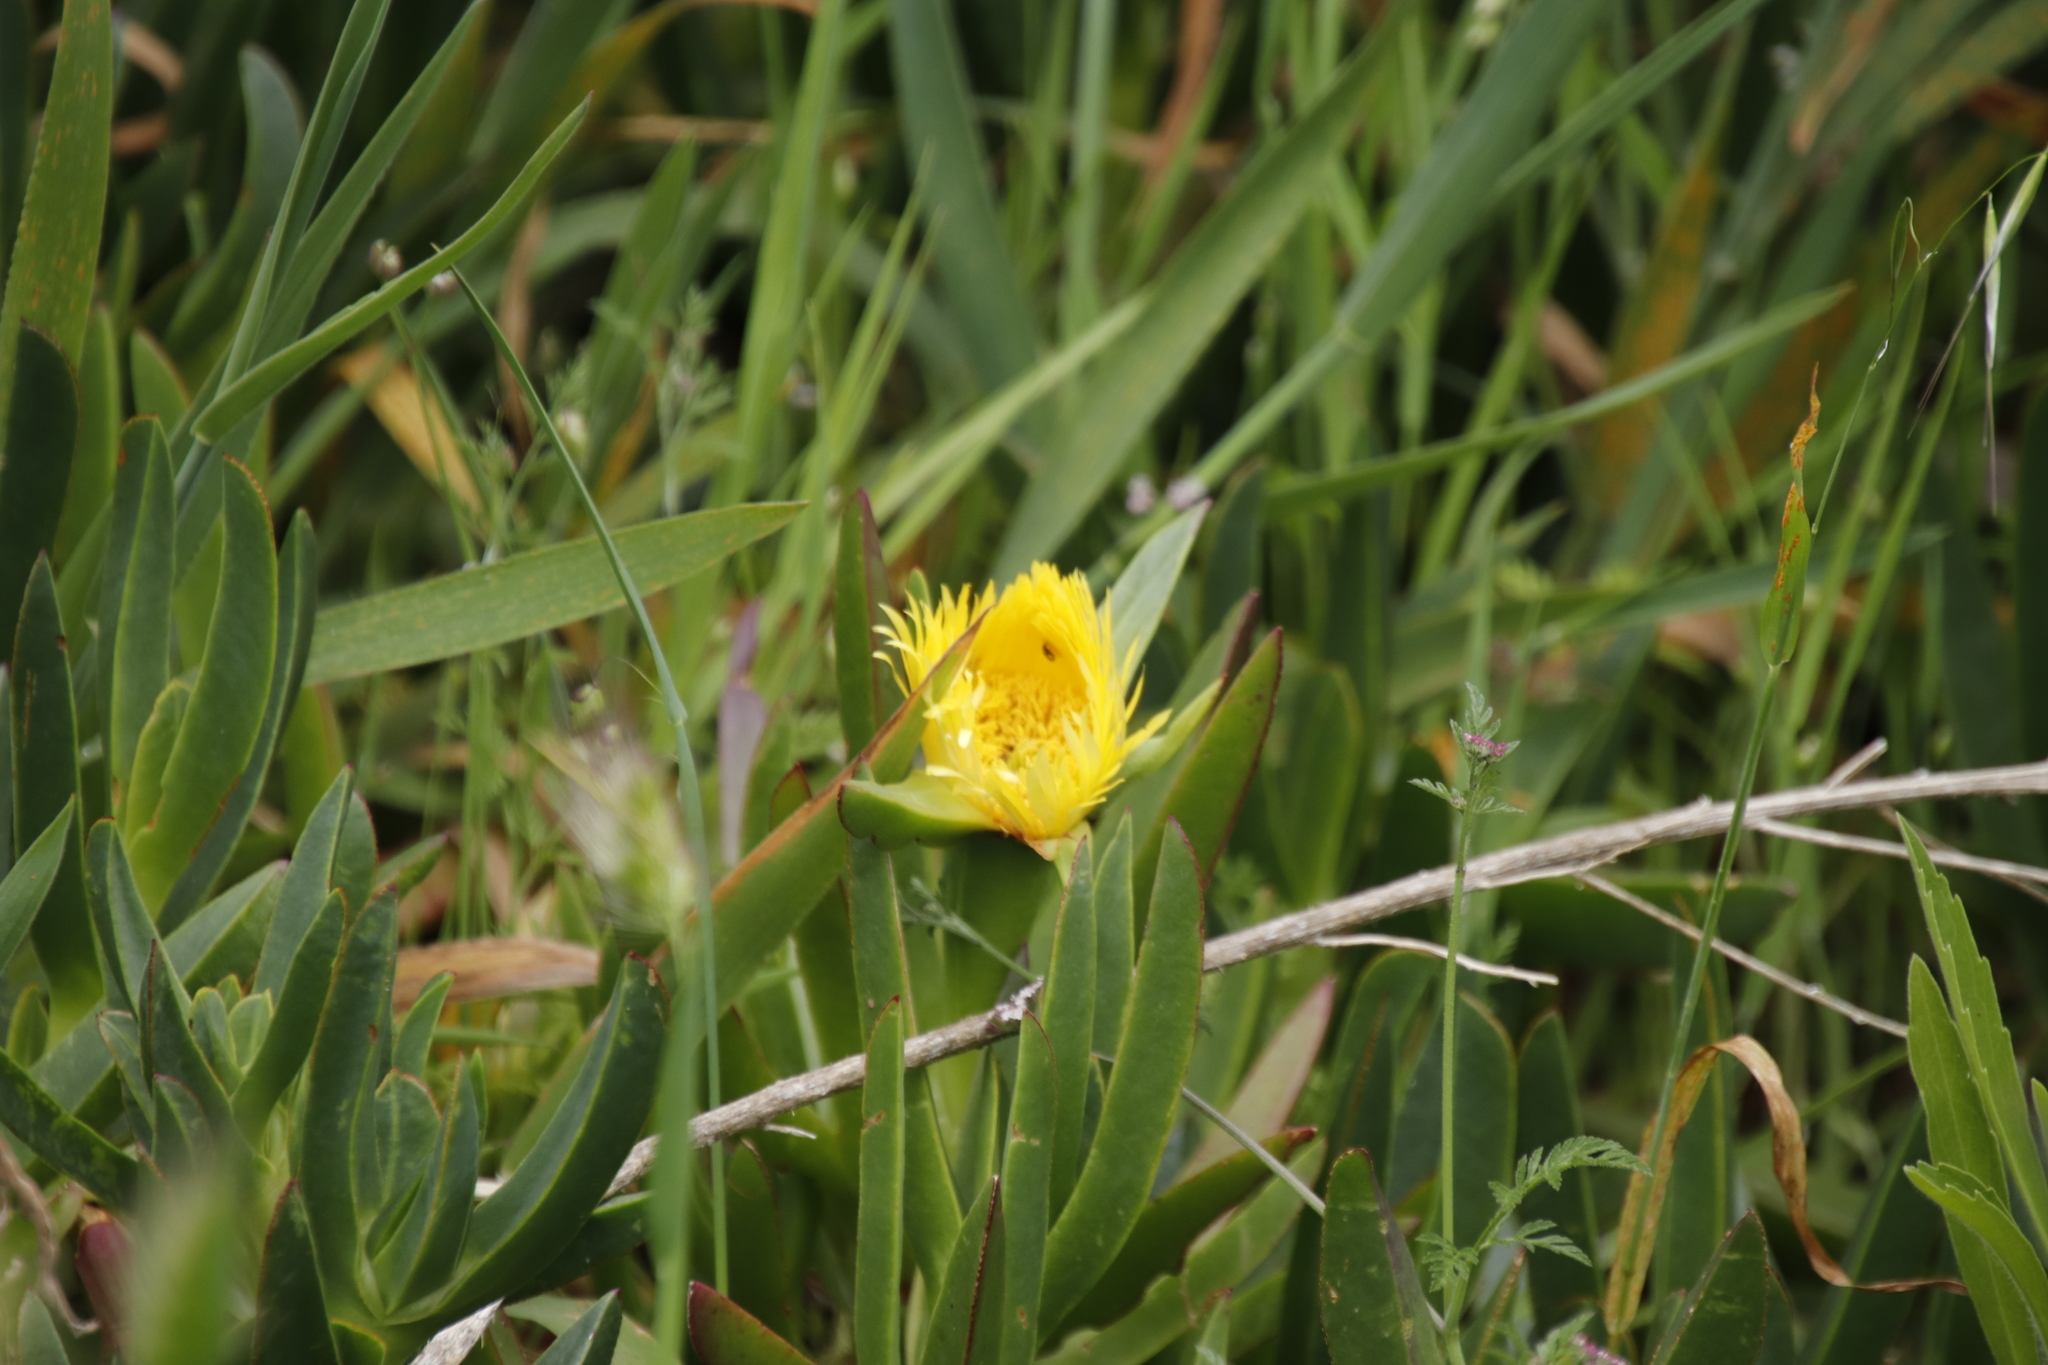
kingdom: Plantae
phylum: Tracheophyta
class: Magnoliopsida
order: Caryophyllales
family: Aizoaceae
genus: Carpobrotus
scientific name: Carpobrotus edulis
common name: Hottentot-fig
